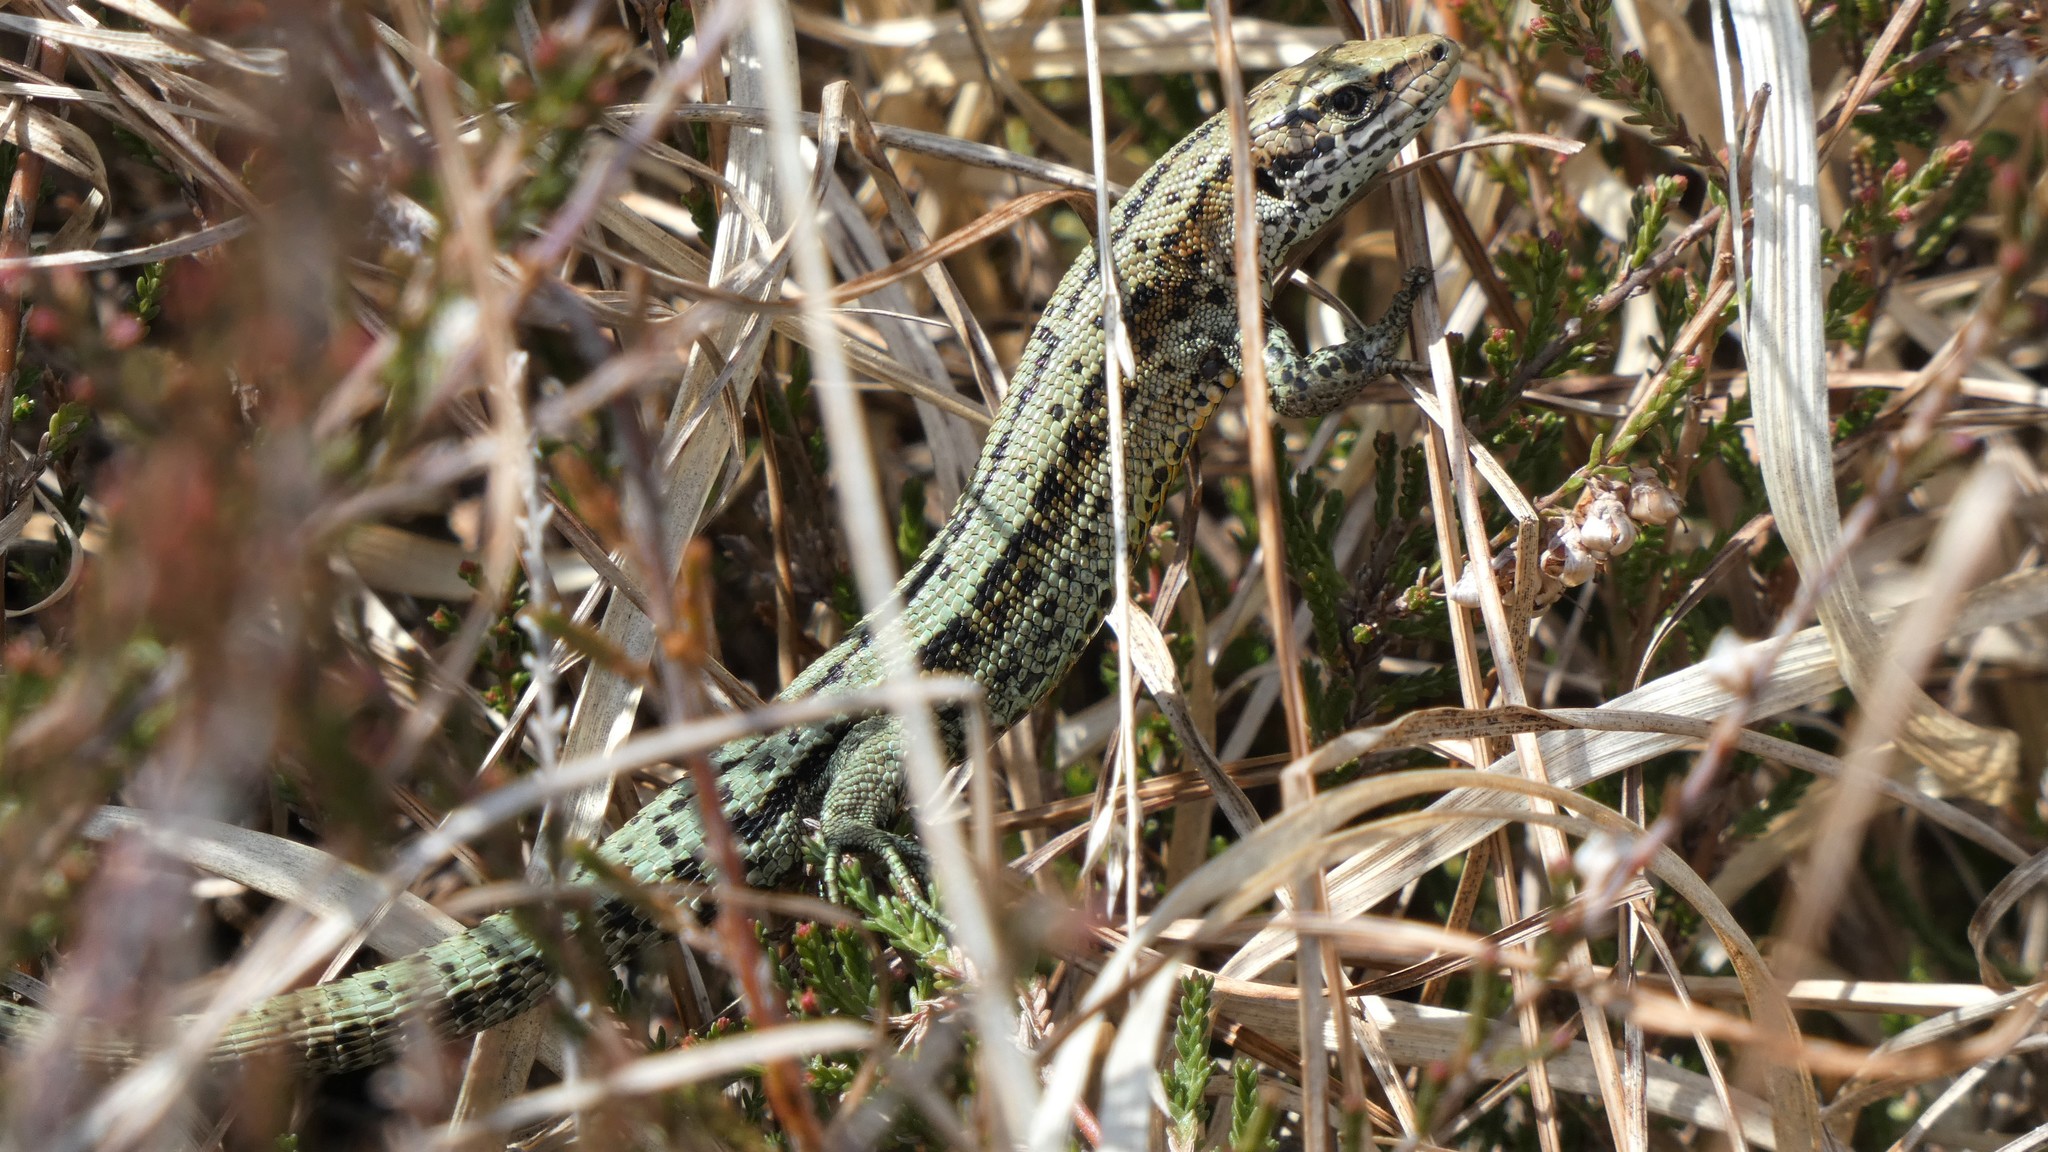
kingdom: Animalia
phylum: Chordata
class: Squamata
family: Lacertidae
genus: Zootoca
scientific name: Zootoca vivipara
